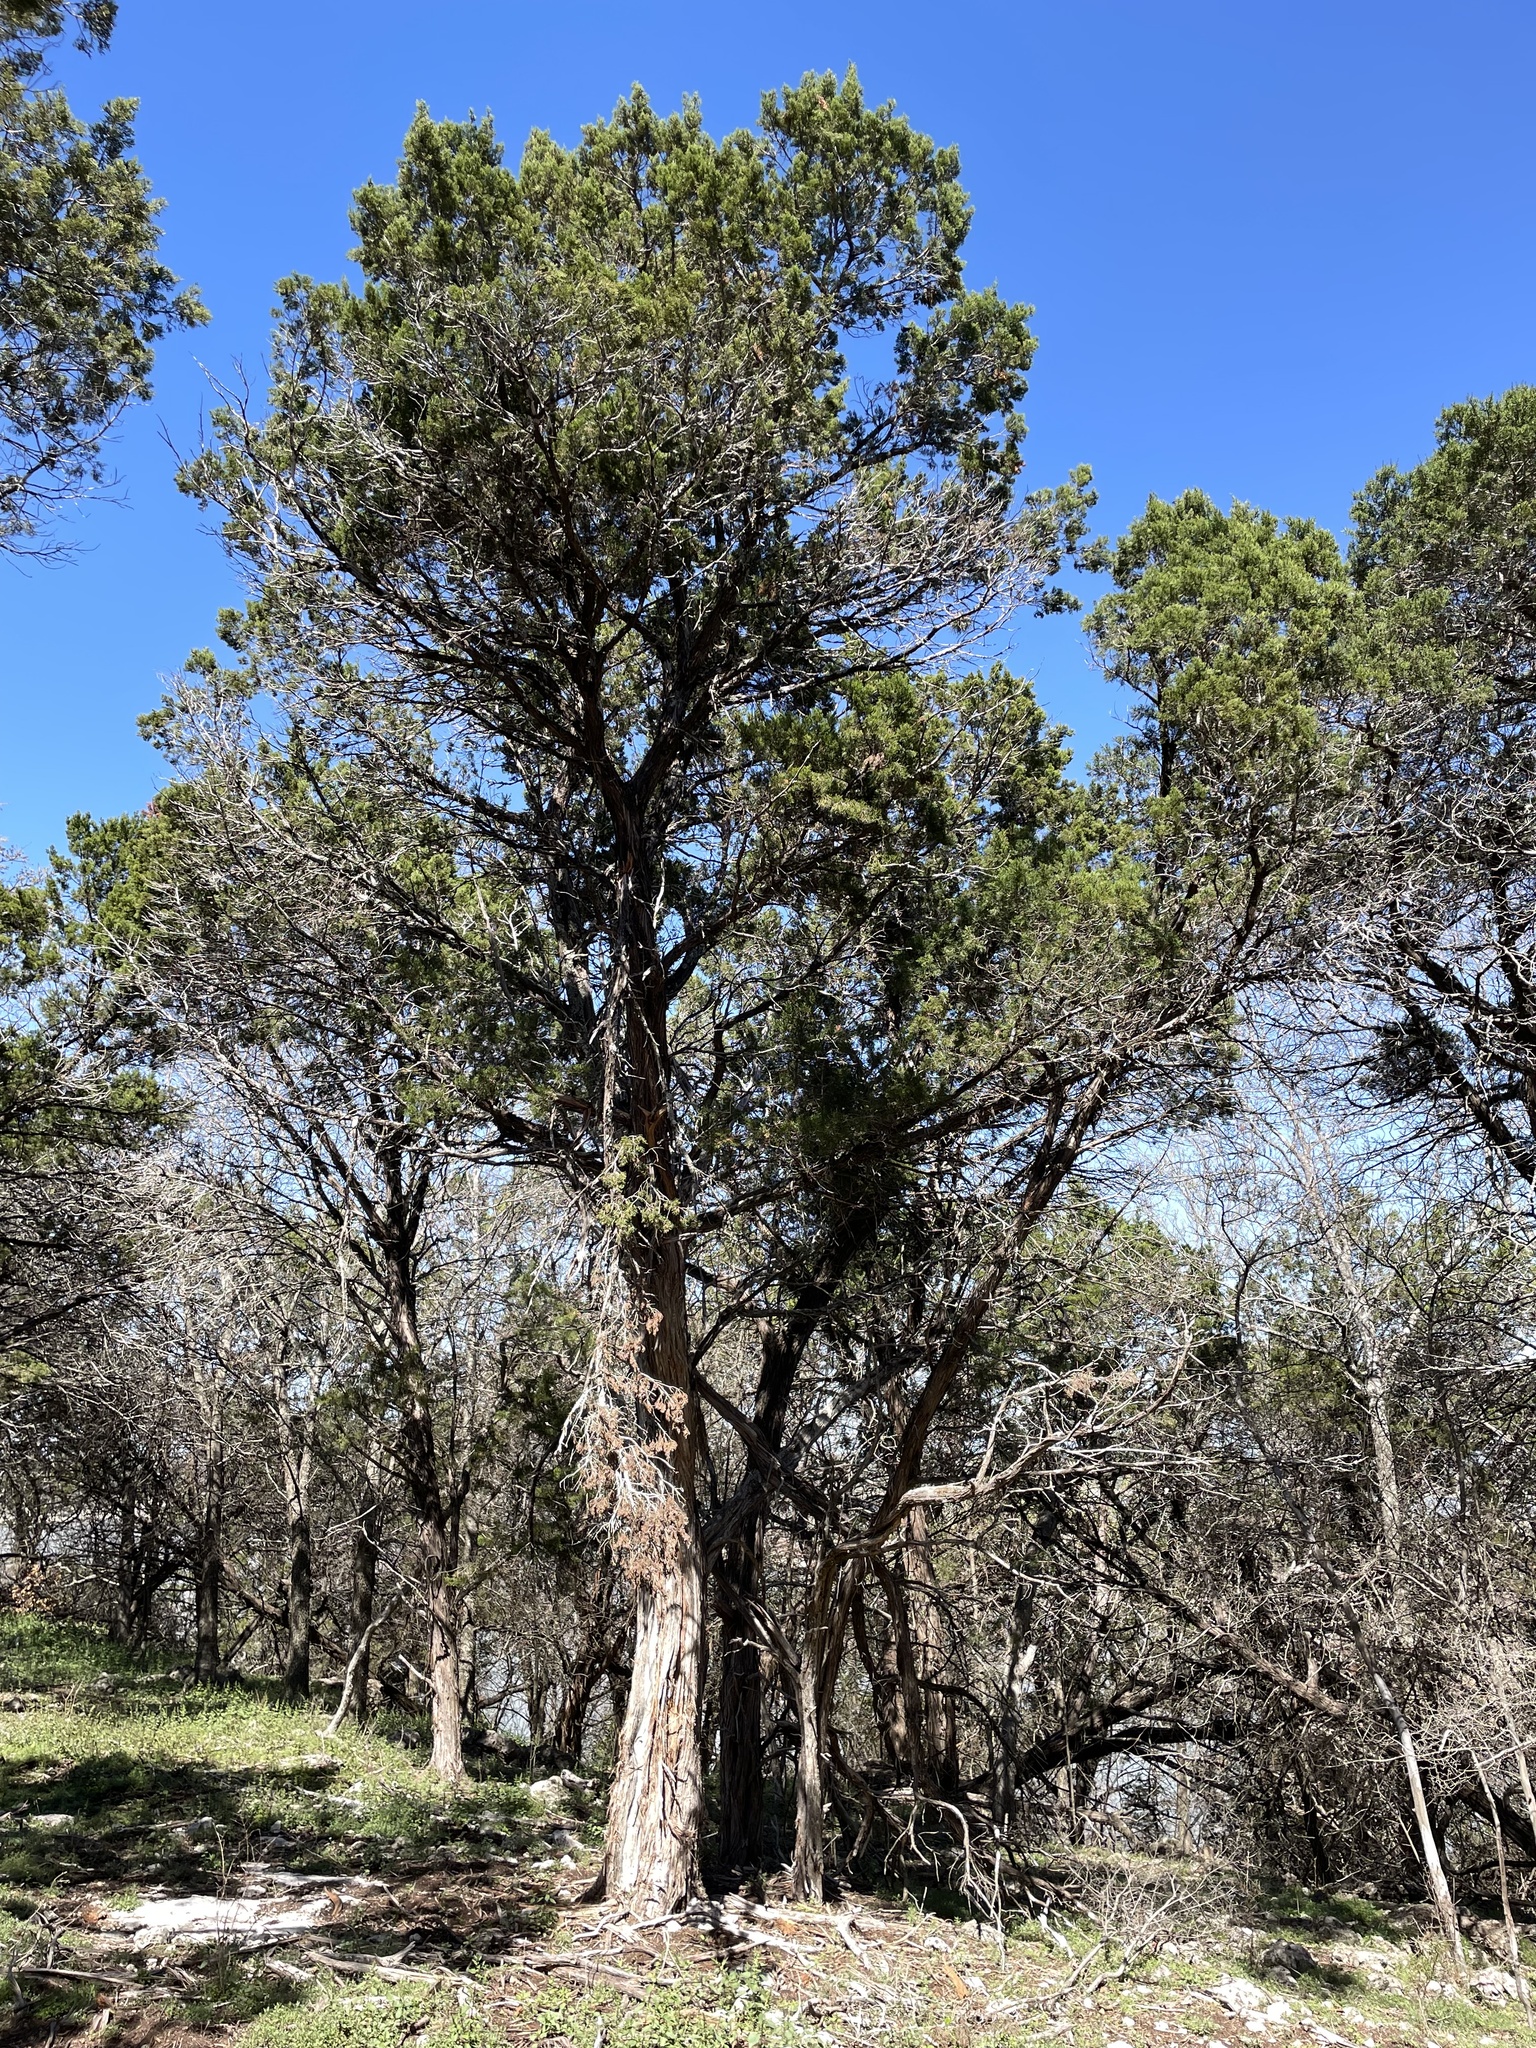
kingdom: Plantae
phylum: Tracheophyta
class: Pinopsida
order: Pinales
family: Cupressaceae
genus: Juniperus
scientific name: Juniperus ashei
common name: Mexican juniper
